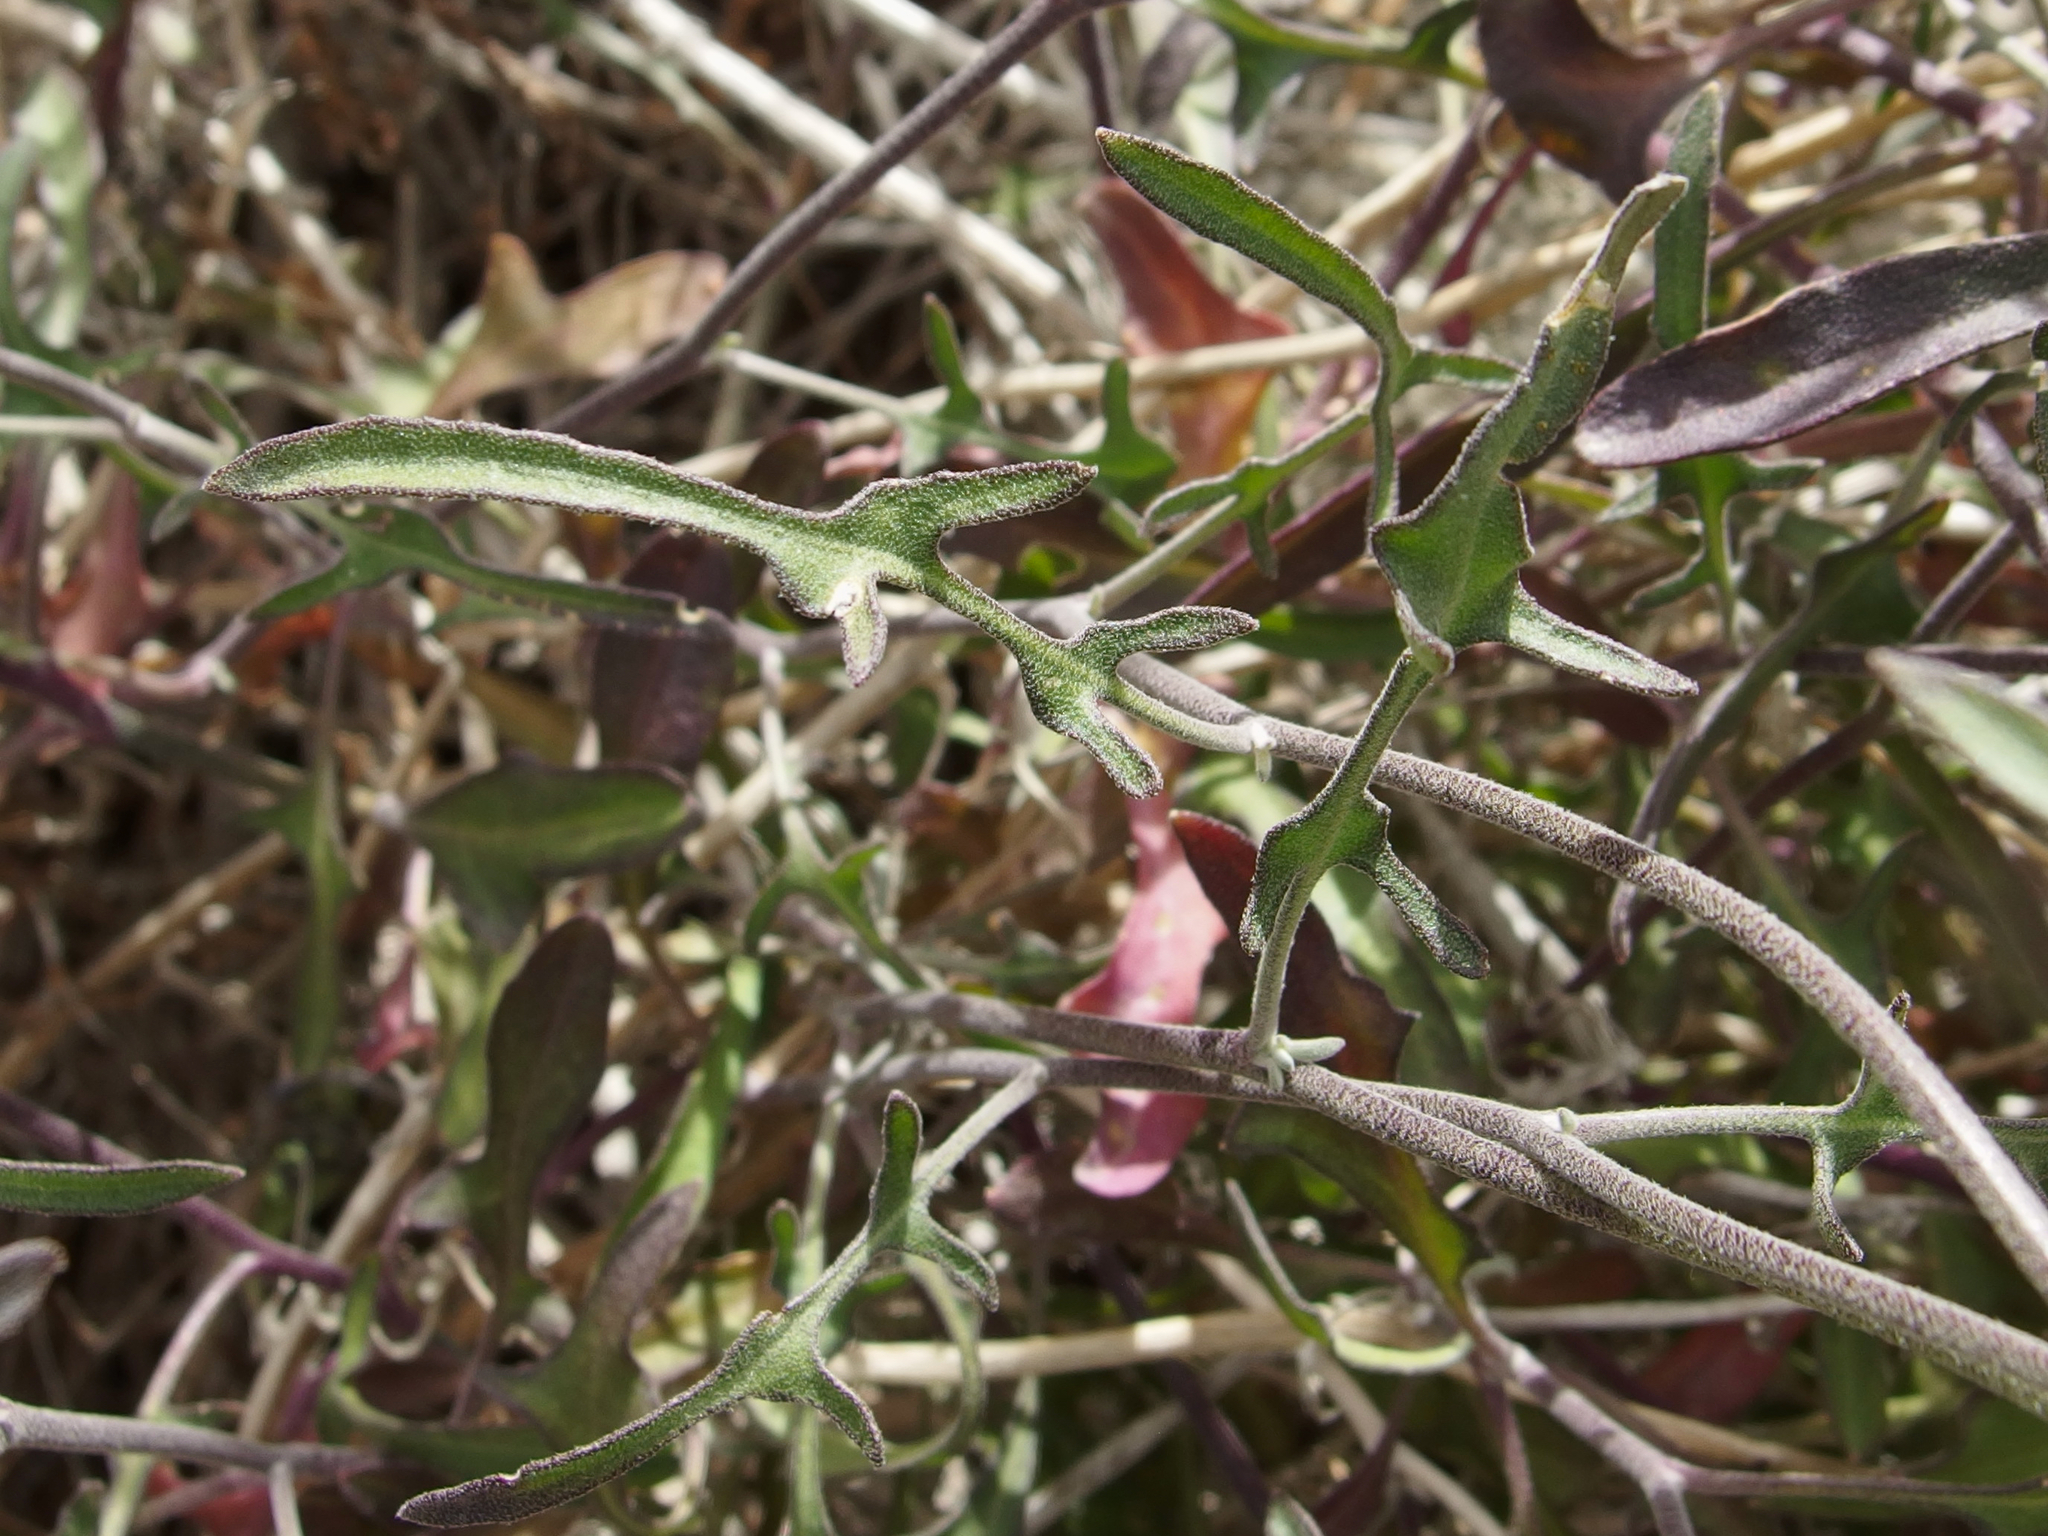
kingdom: Plantae
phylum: Tracheophyta
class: Magnoliopsida
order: Brassicales
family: Brassicaceae
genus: Lyrocarpa
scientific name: Lyrocarpa coulteri
